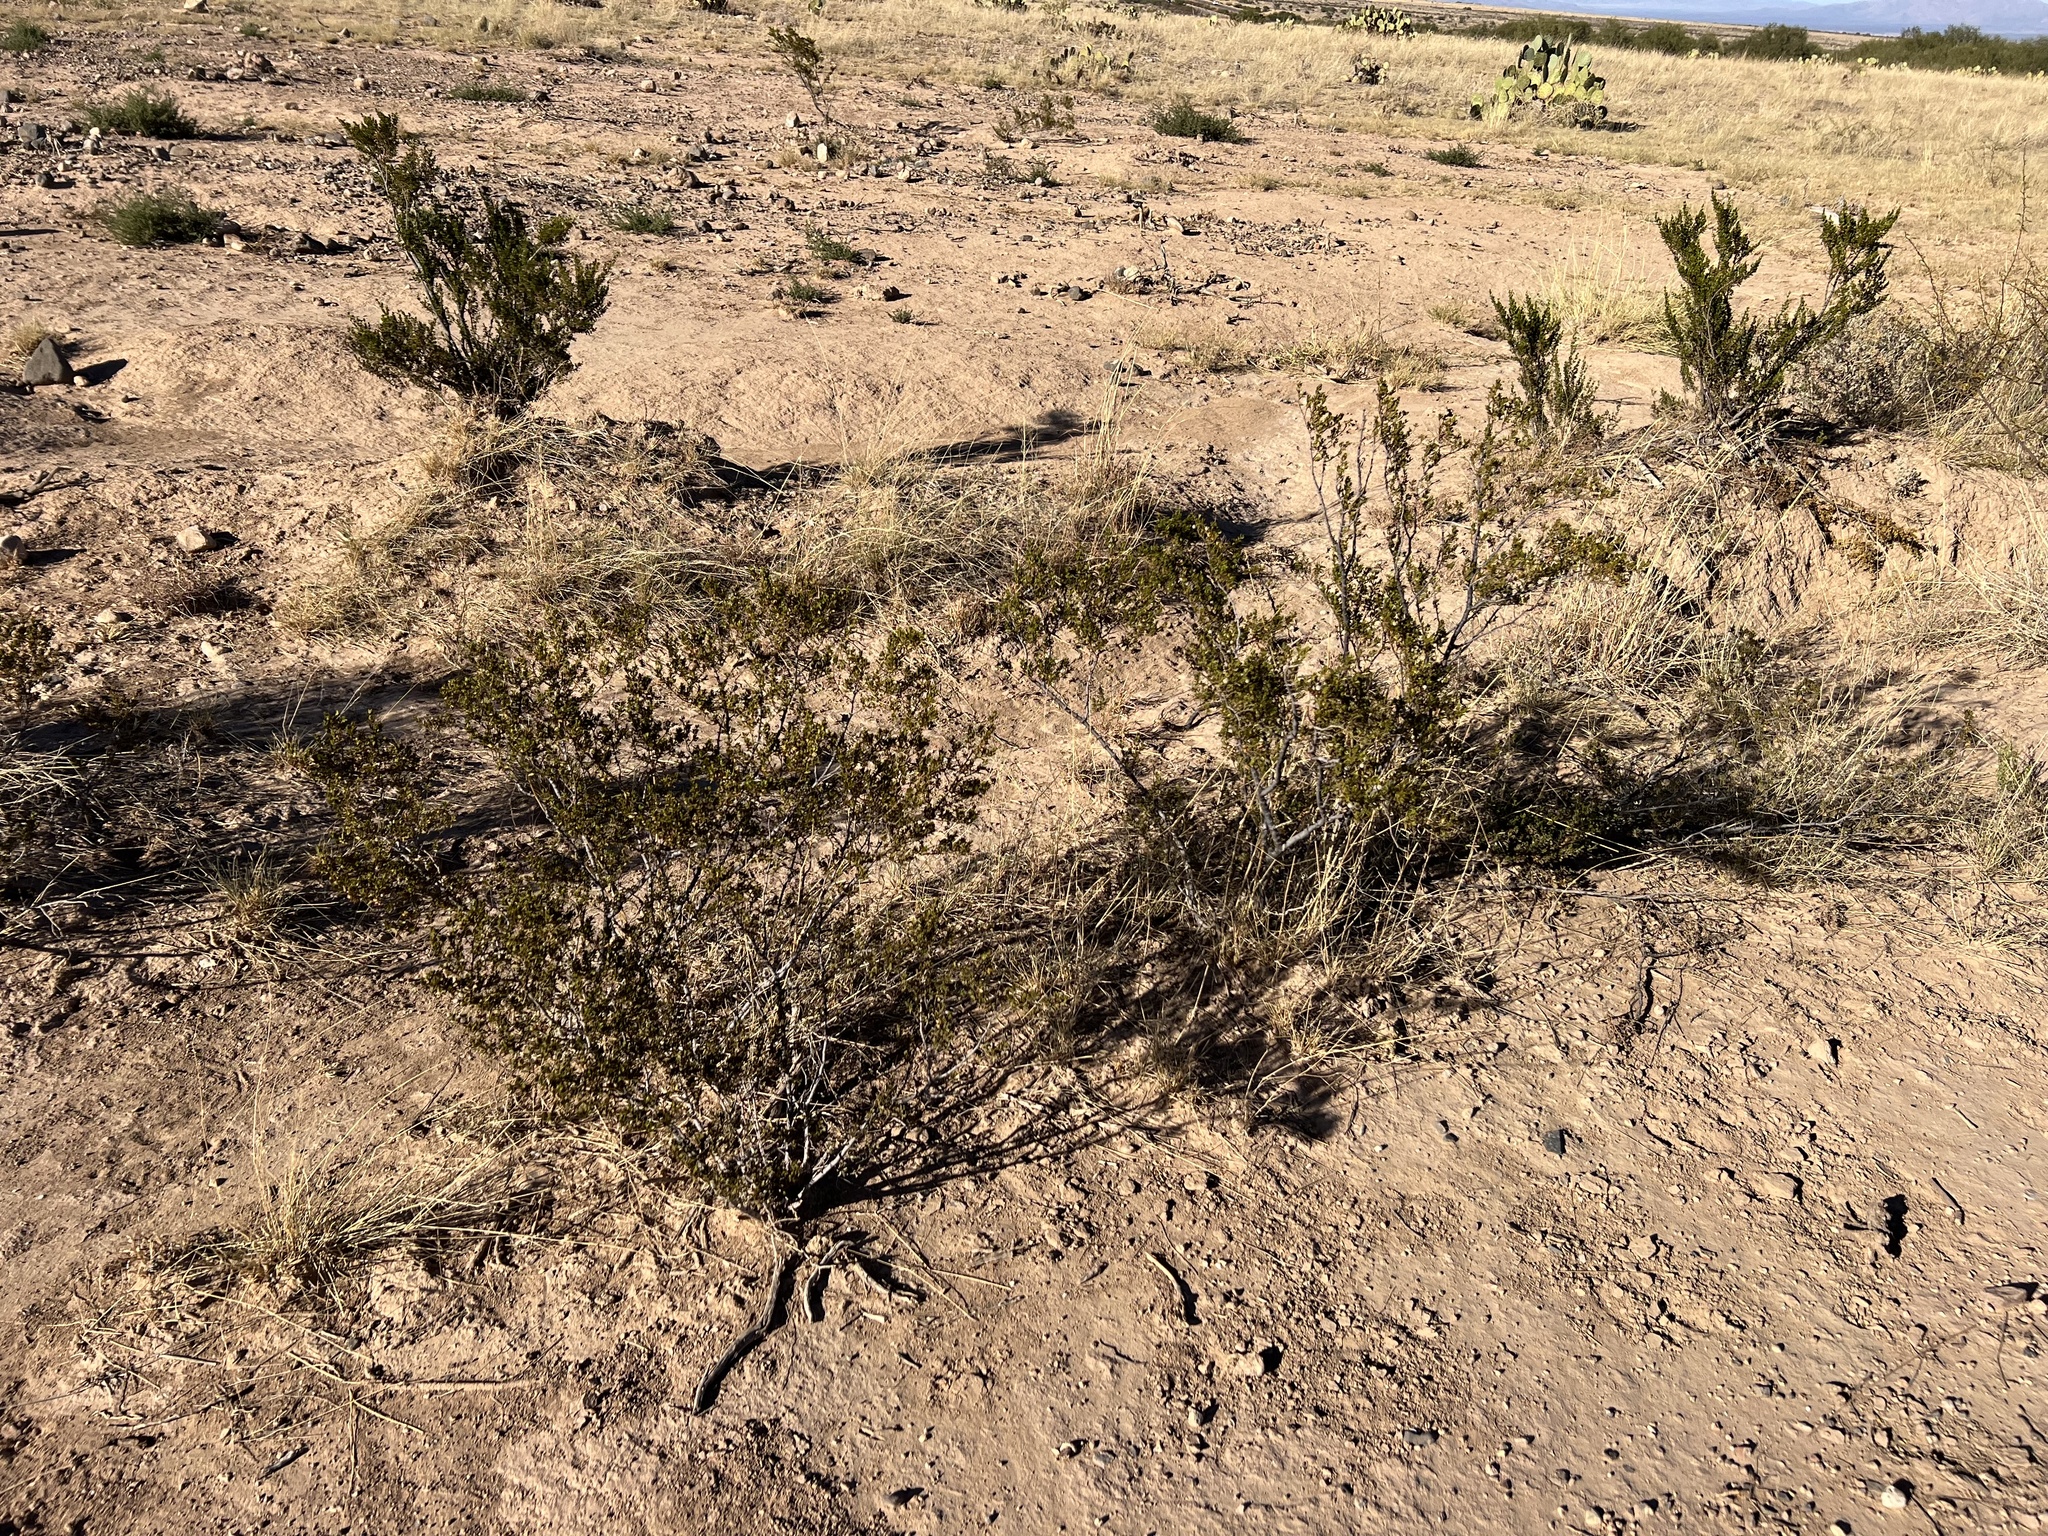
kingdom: Plantae
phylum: Tracheophyta
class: Magnoliopsida
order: Zygophyllales
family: Zygophyllaceae
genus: Larrea
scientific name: Larrea tridentata
